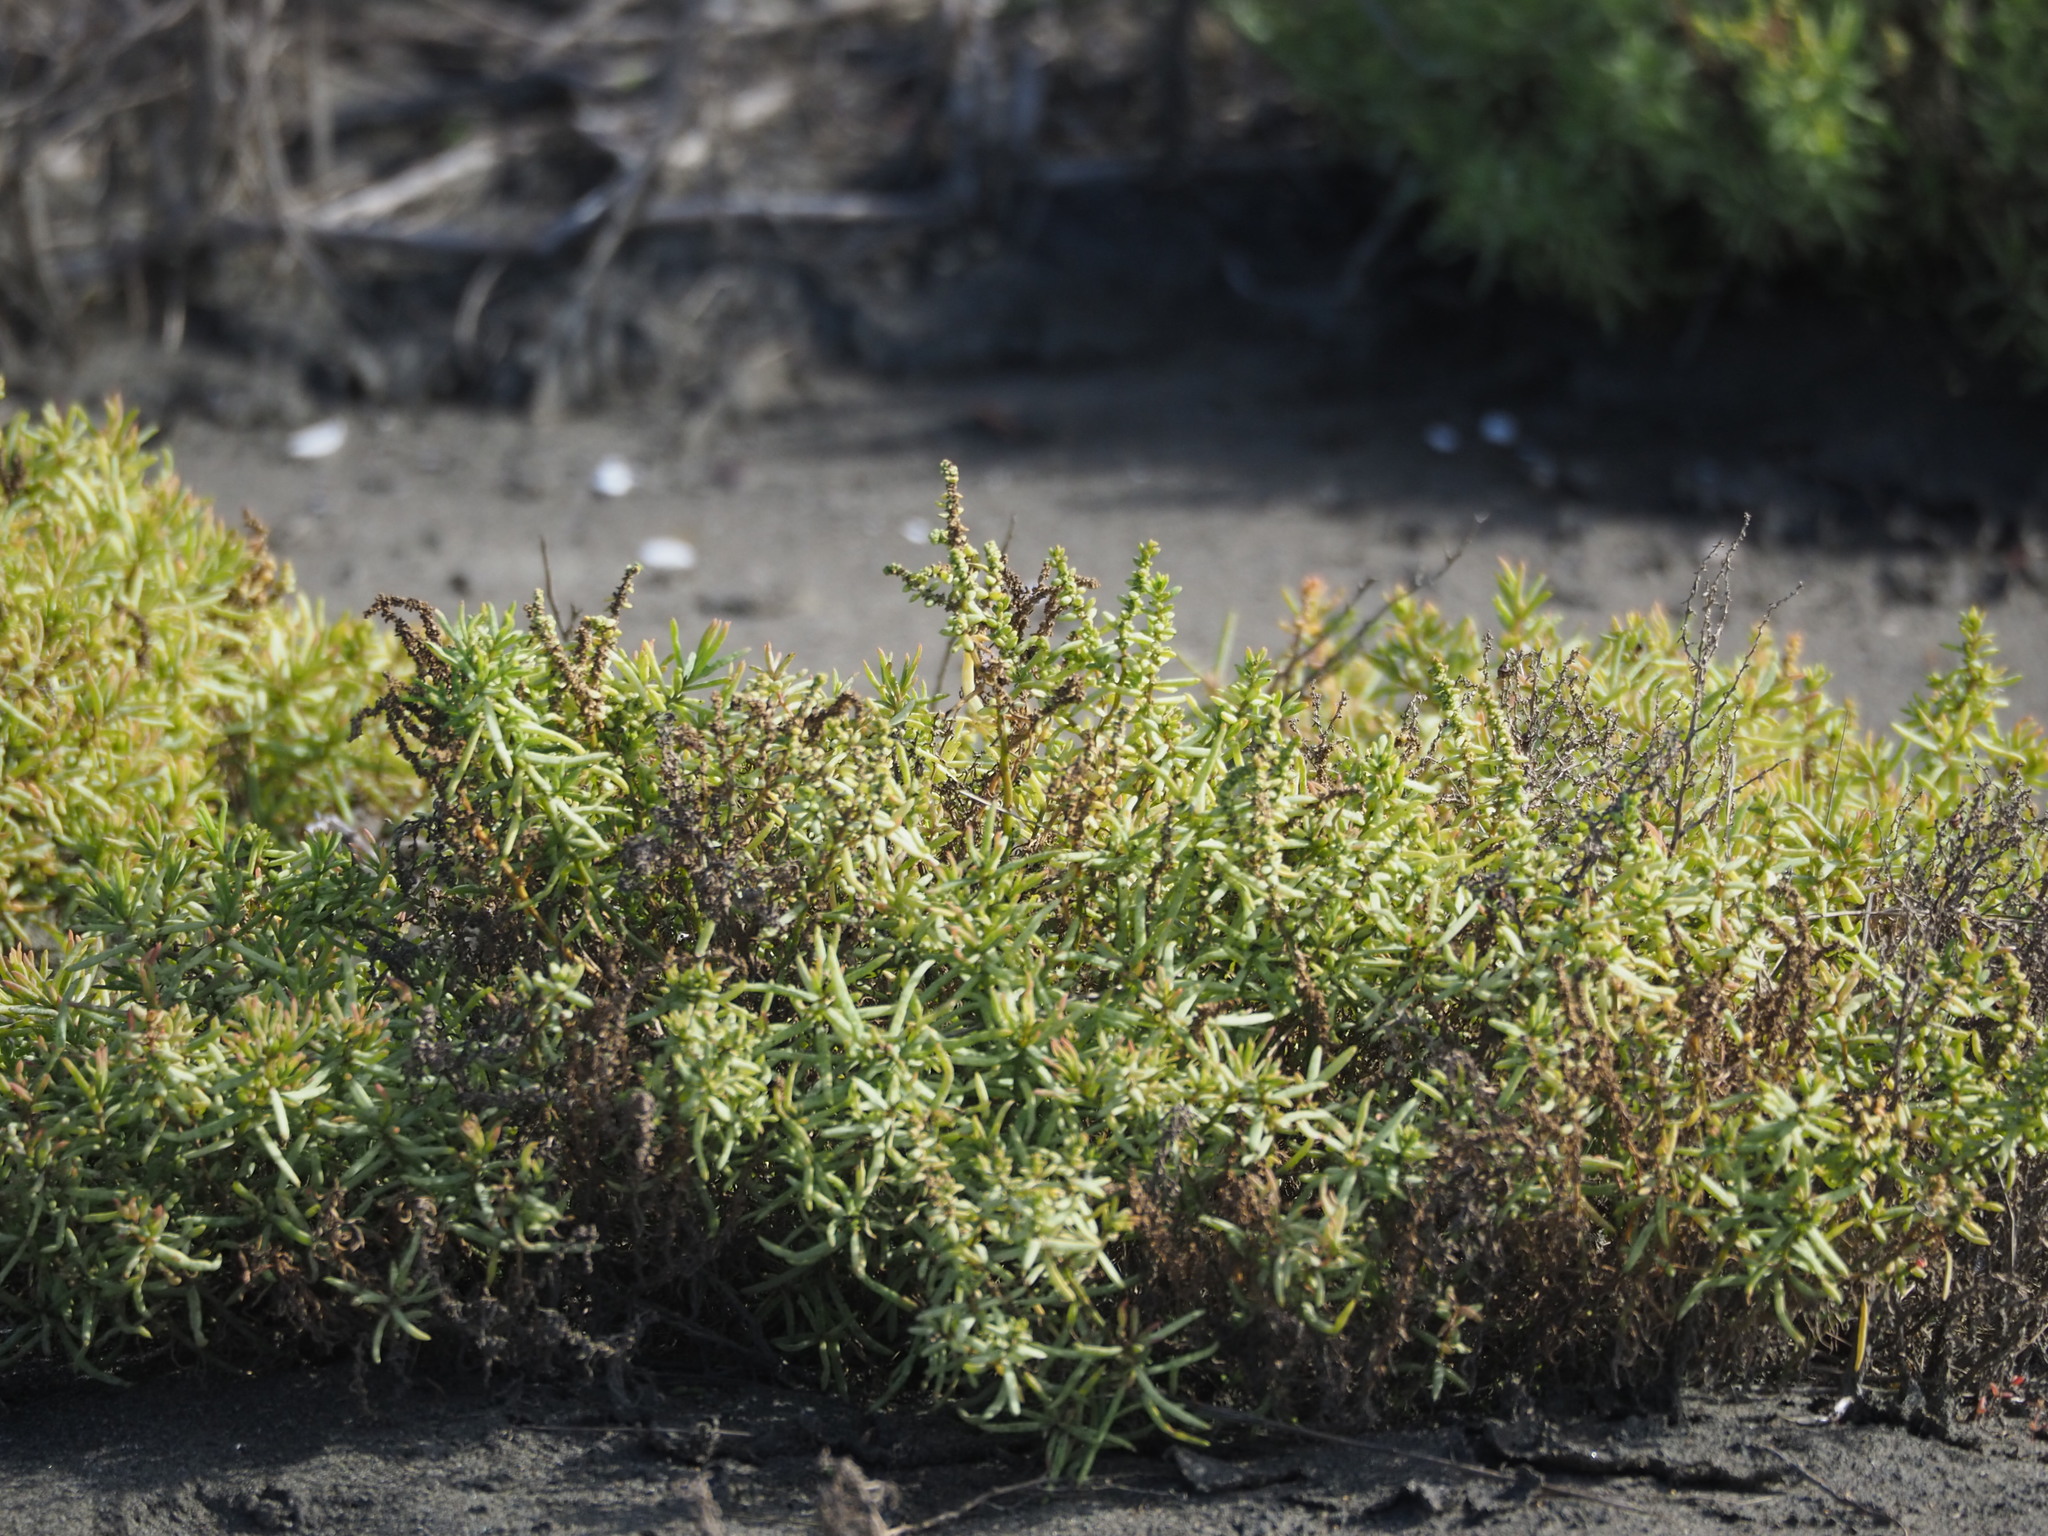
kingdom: Plantae
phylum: Tracheophyta
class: Magnoliopsida
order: Caryophyllales
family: Amaranthaceae
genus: Suaeda
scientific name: Suaeda maritima
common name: Annual sea-blite
